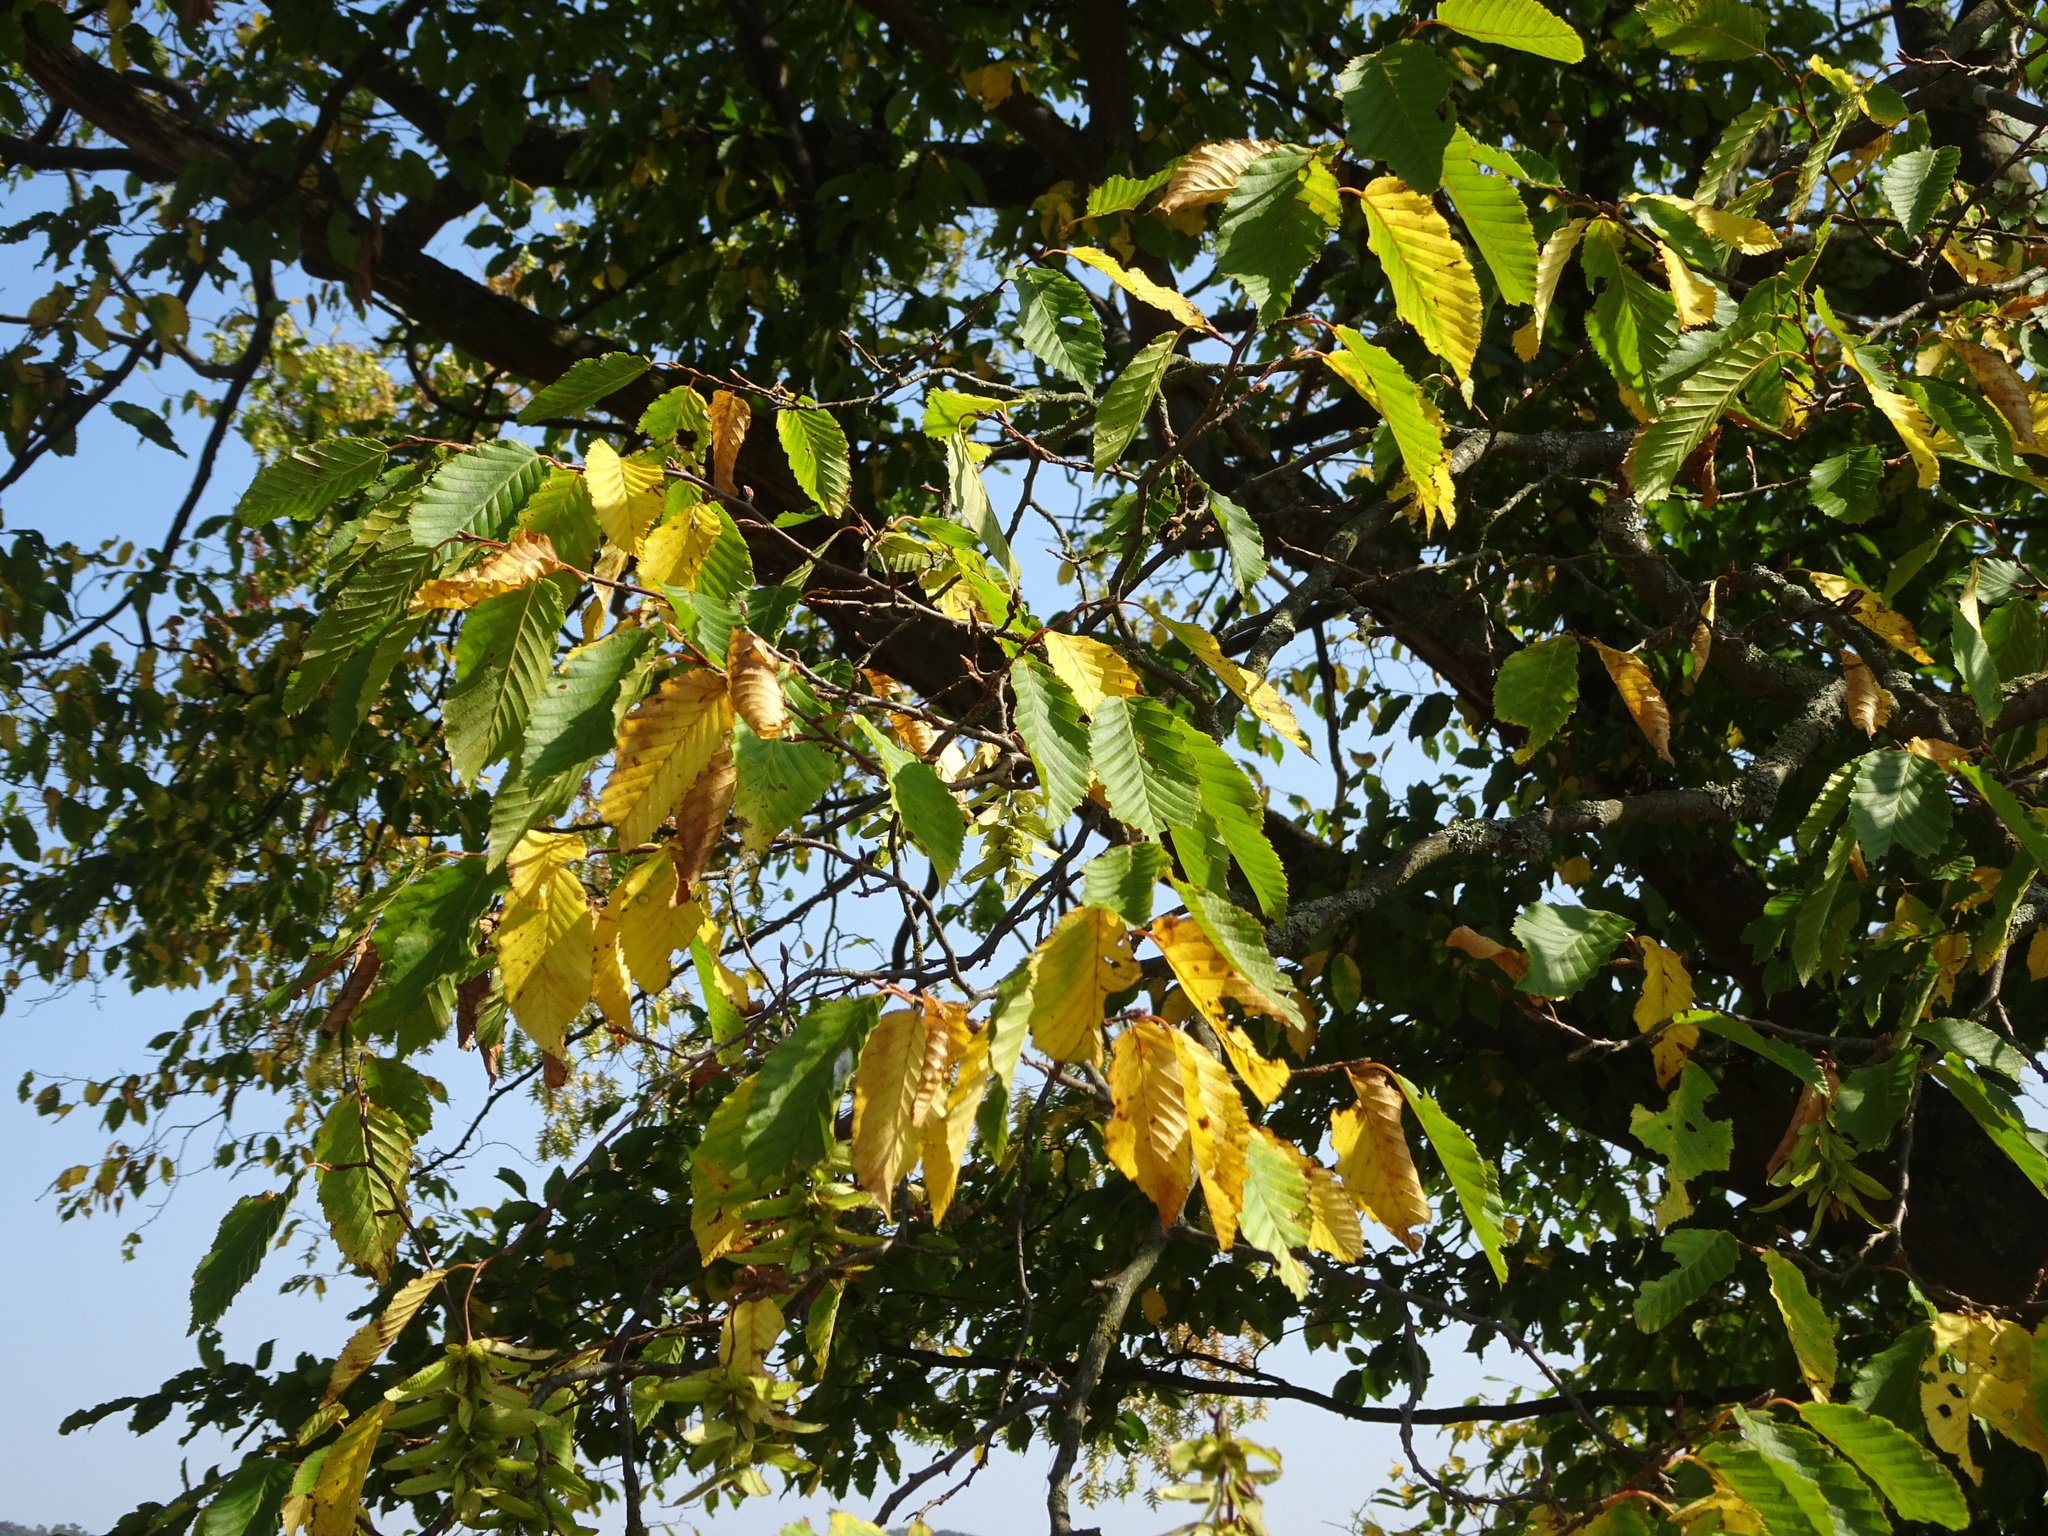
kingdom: Plantae
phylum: Tracheophyta
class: Magnoliopsida
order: Fagales
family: Betulaceae
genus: Carpinus
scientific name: Carpinus betulus
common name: Hornbeam
